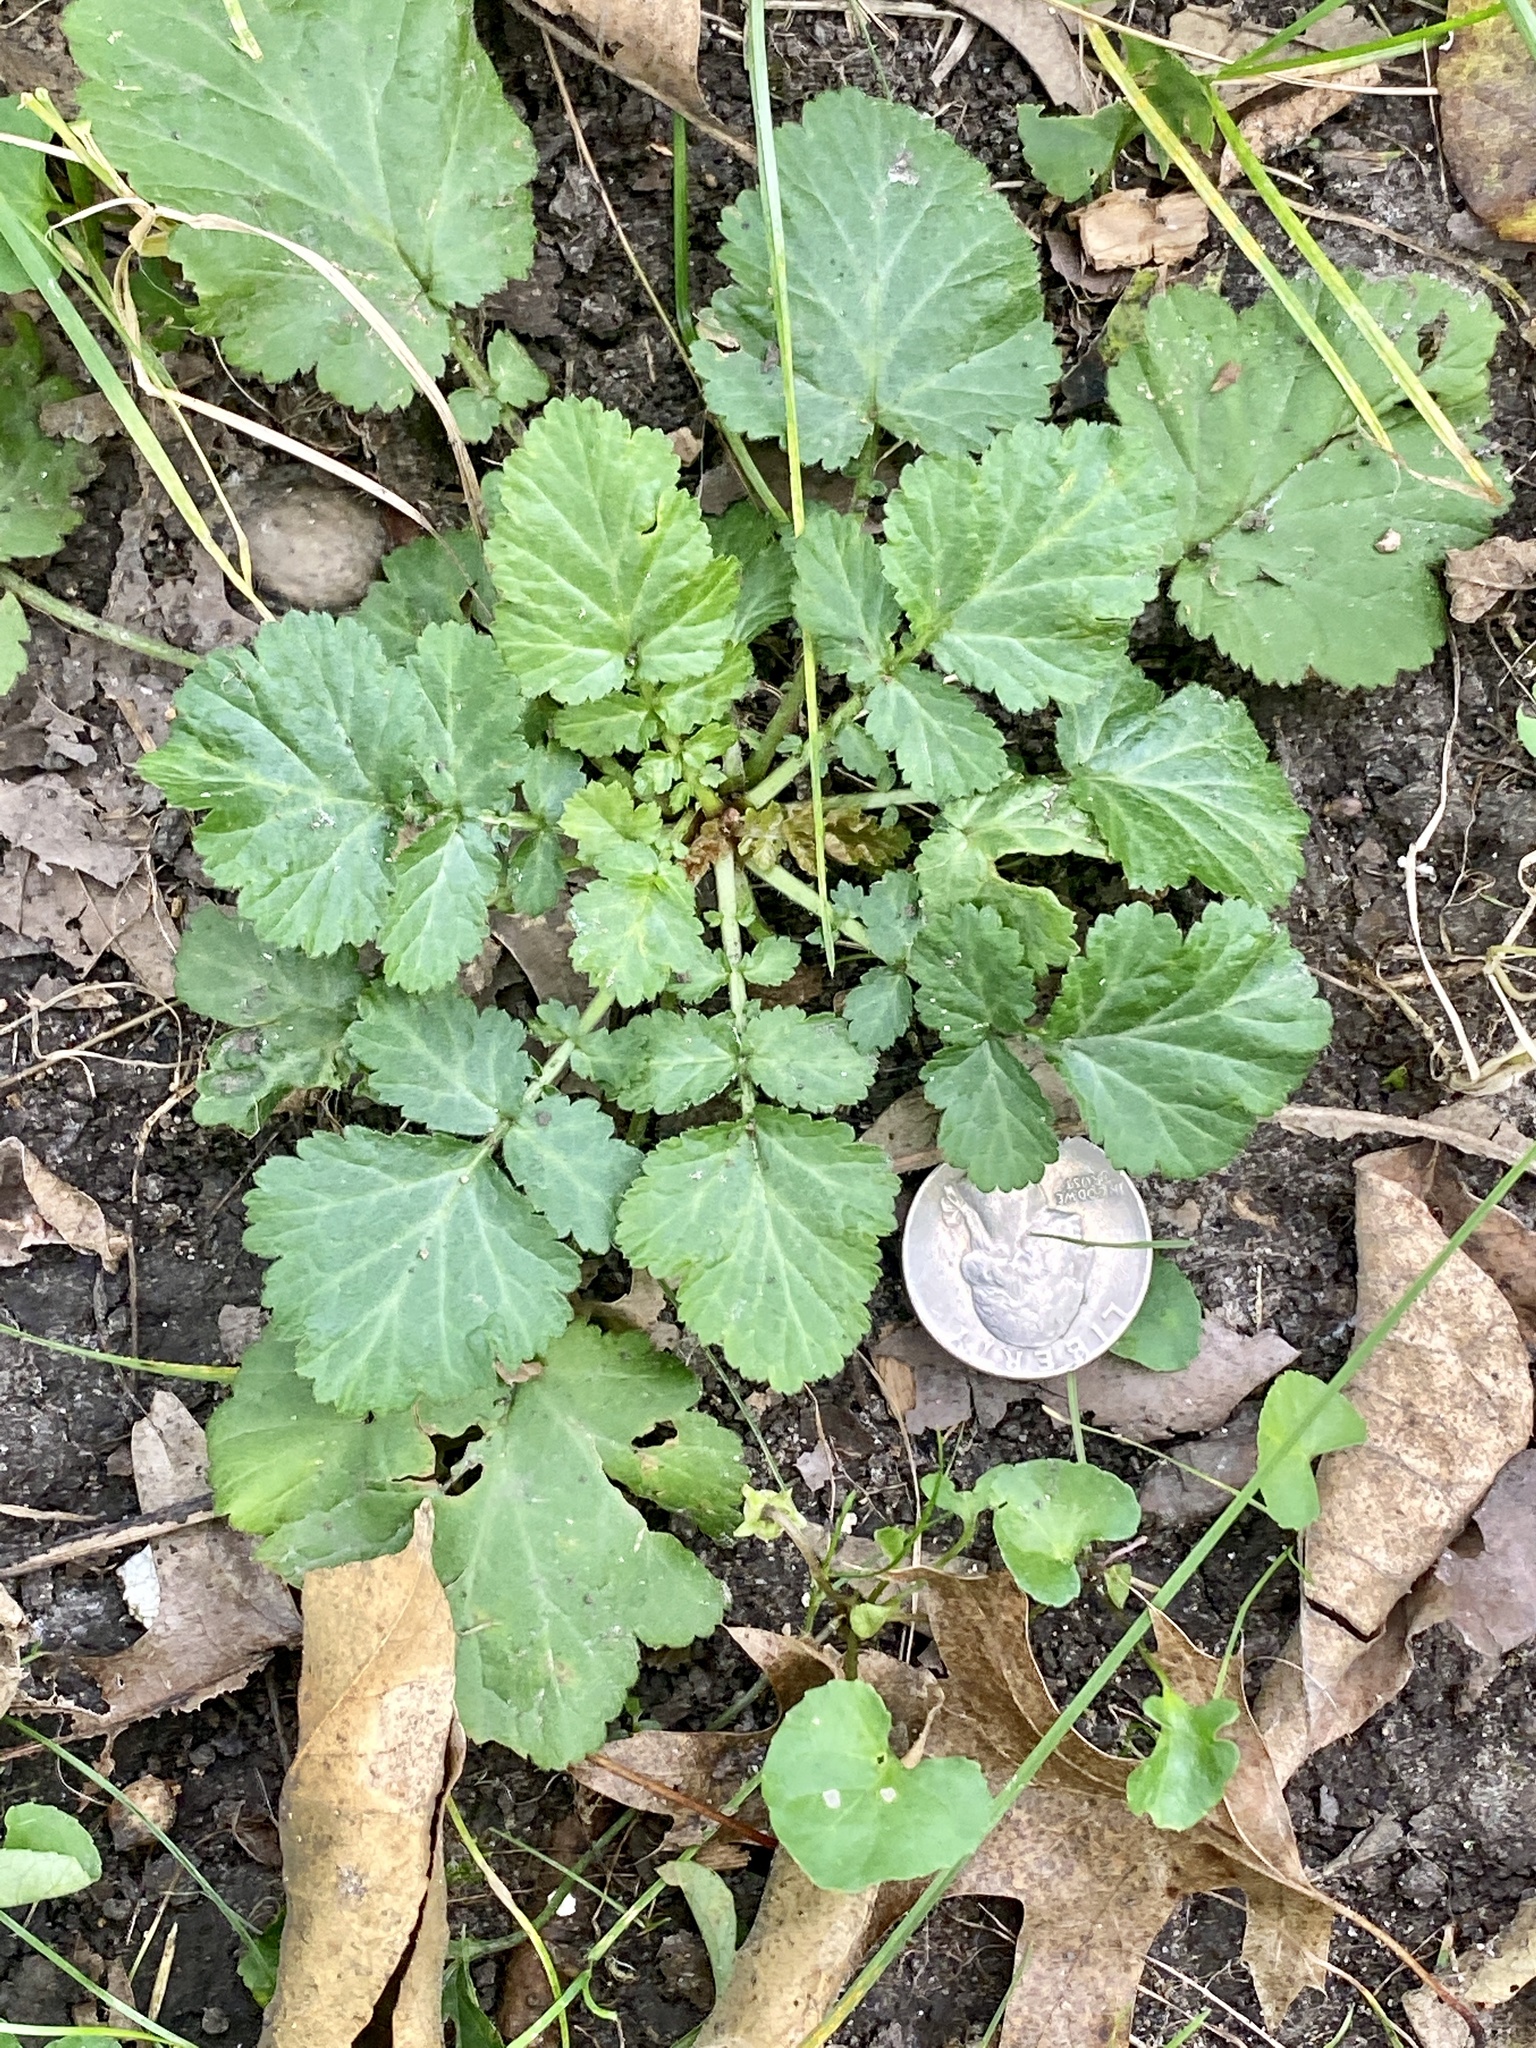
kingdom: Plantae
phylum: Tracheophyta
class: Magnoliopsida
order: Rosales
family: Rosaceae
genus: Geum
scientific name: Geum canadense
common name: White avens
